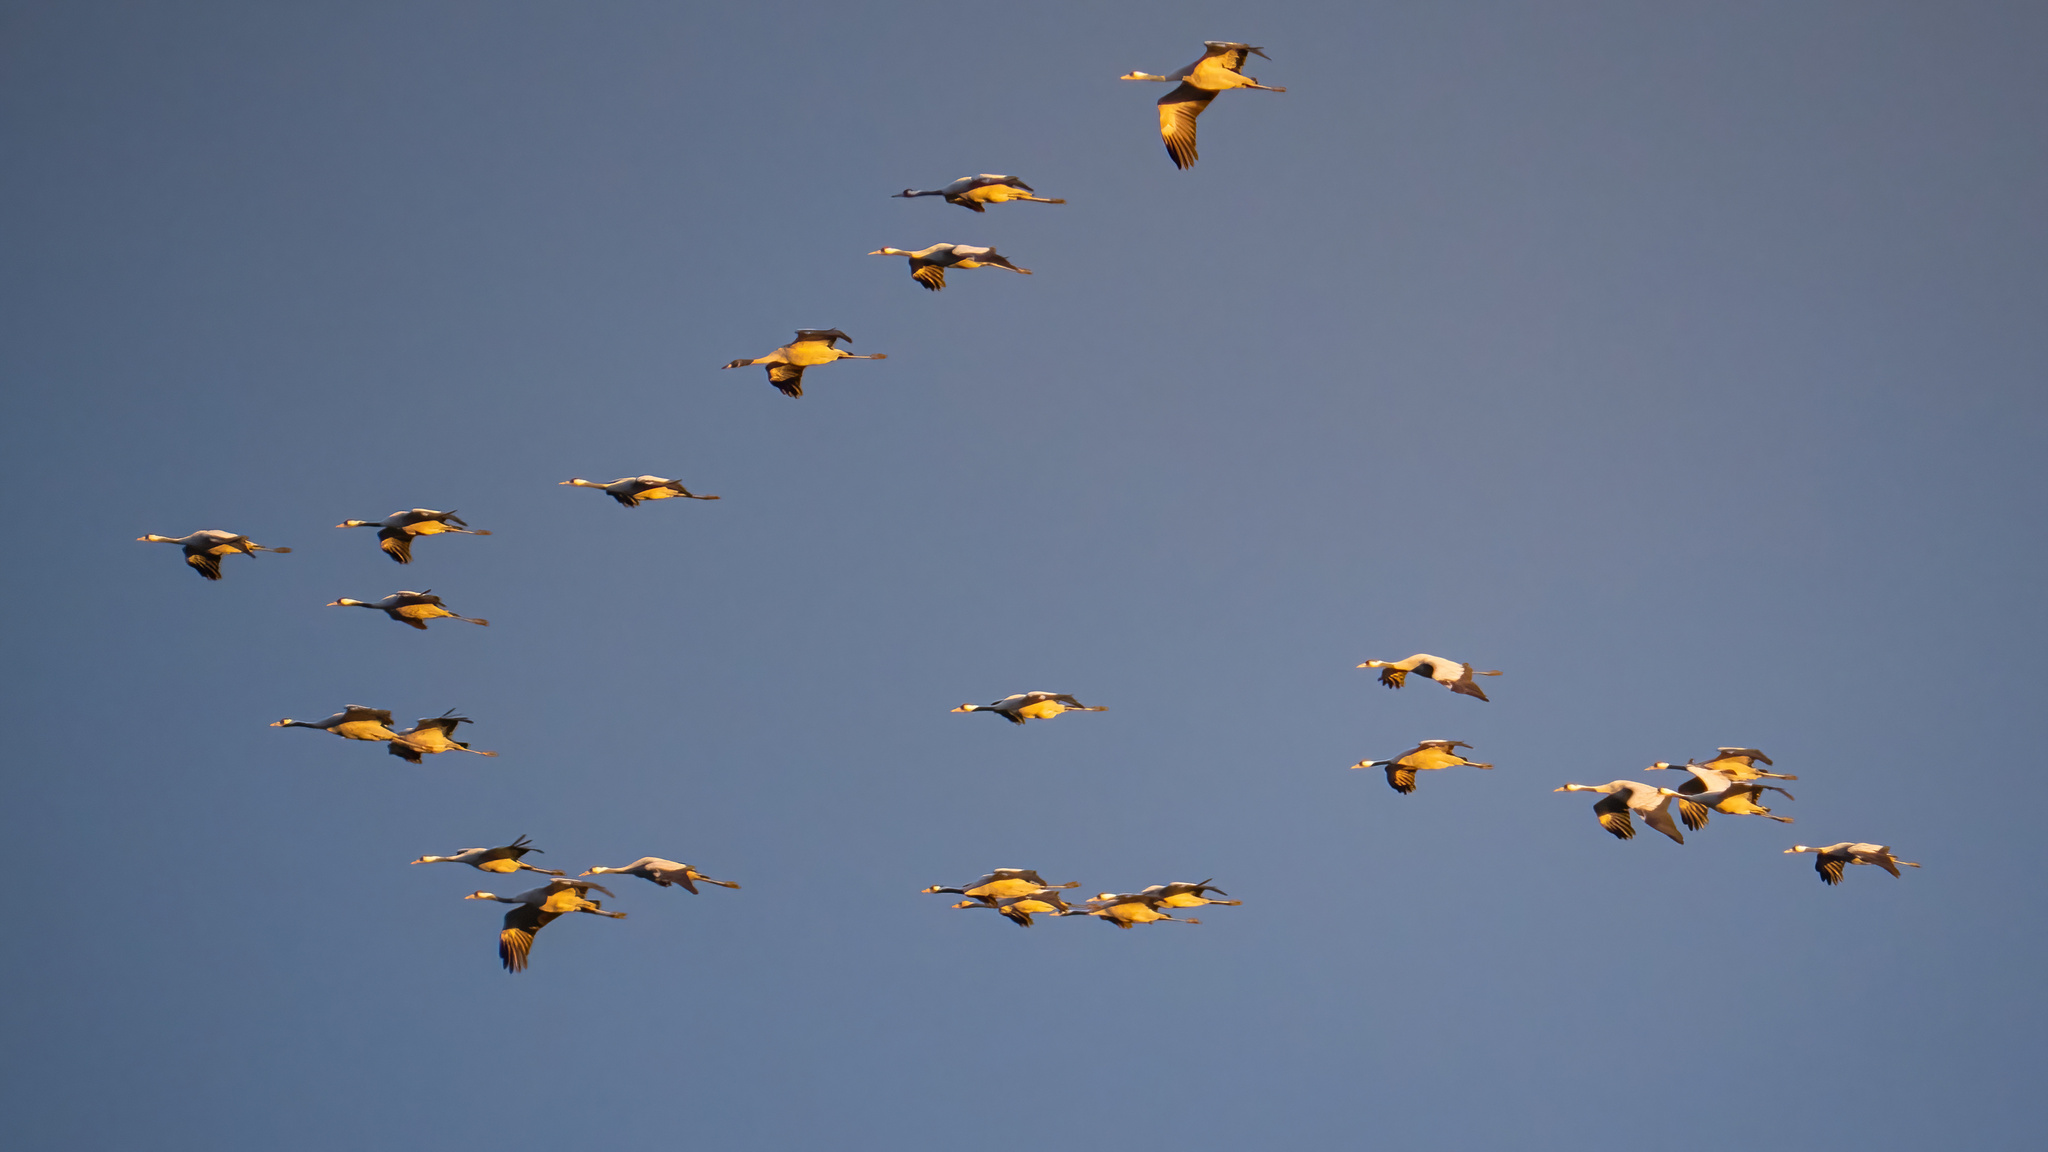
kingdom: Animalia
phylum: Chordata
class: Aves
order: Gruiformes
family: Gruidae
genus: Grus
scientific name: Grus grus
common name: Common crane
